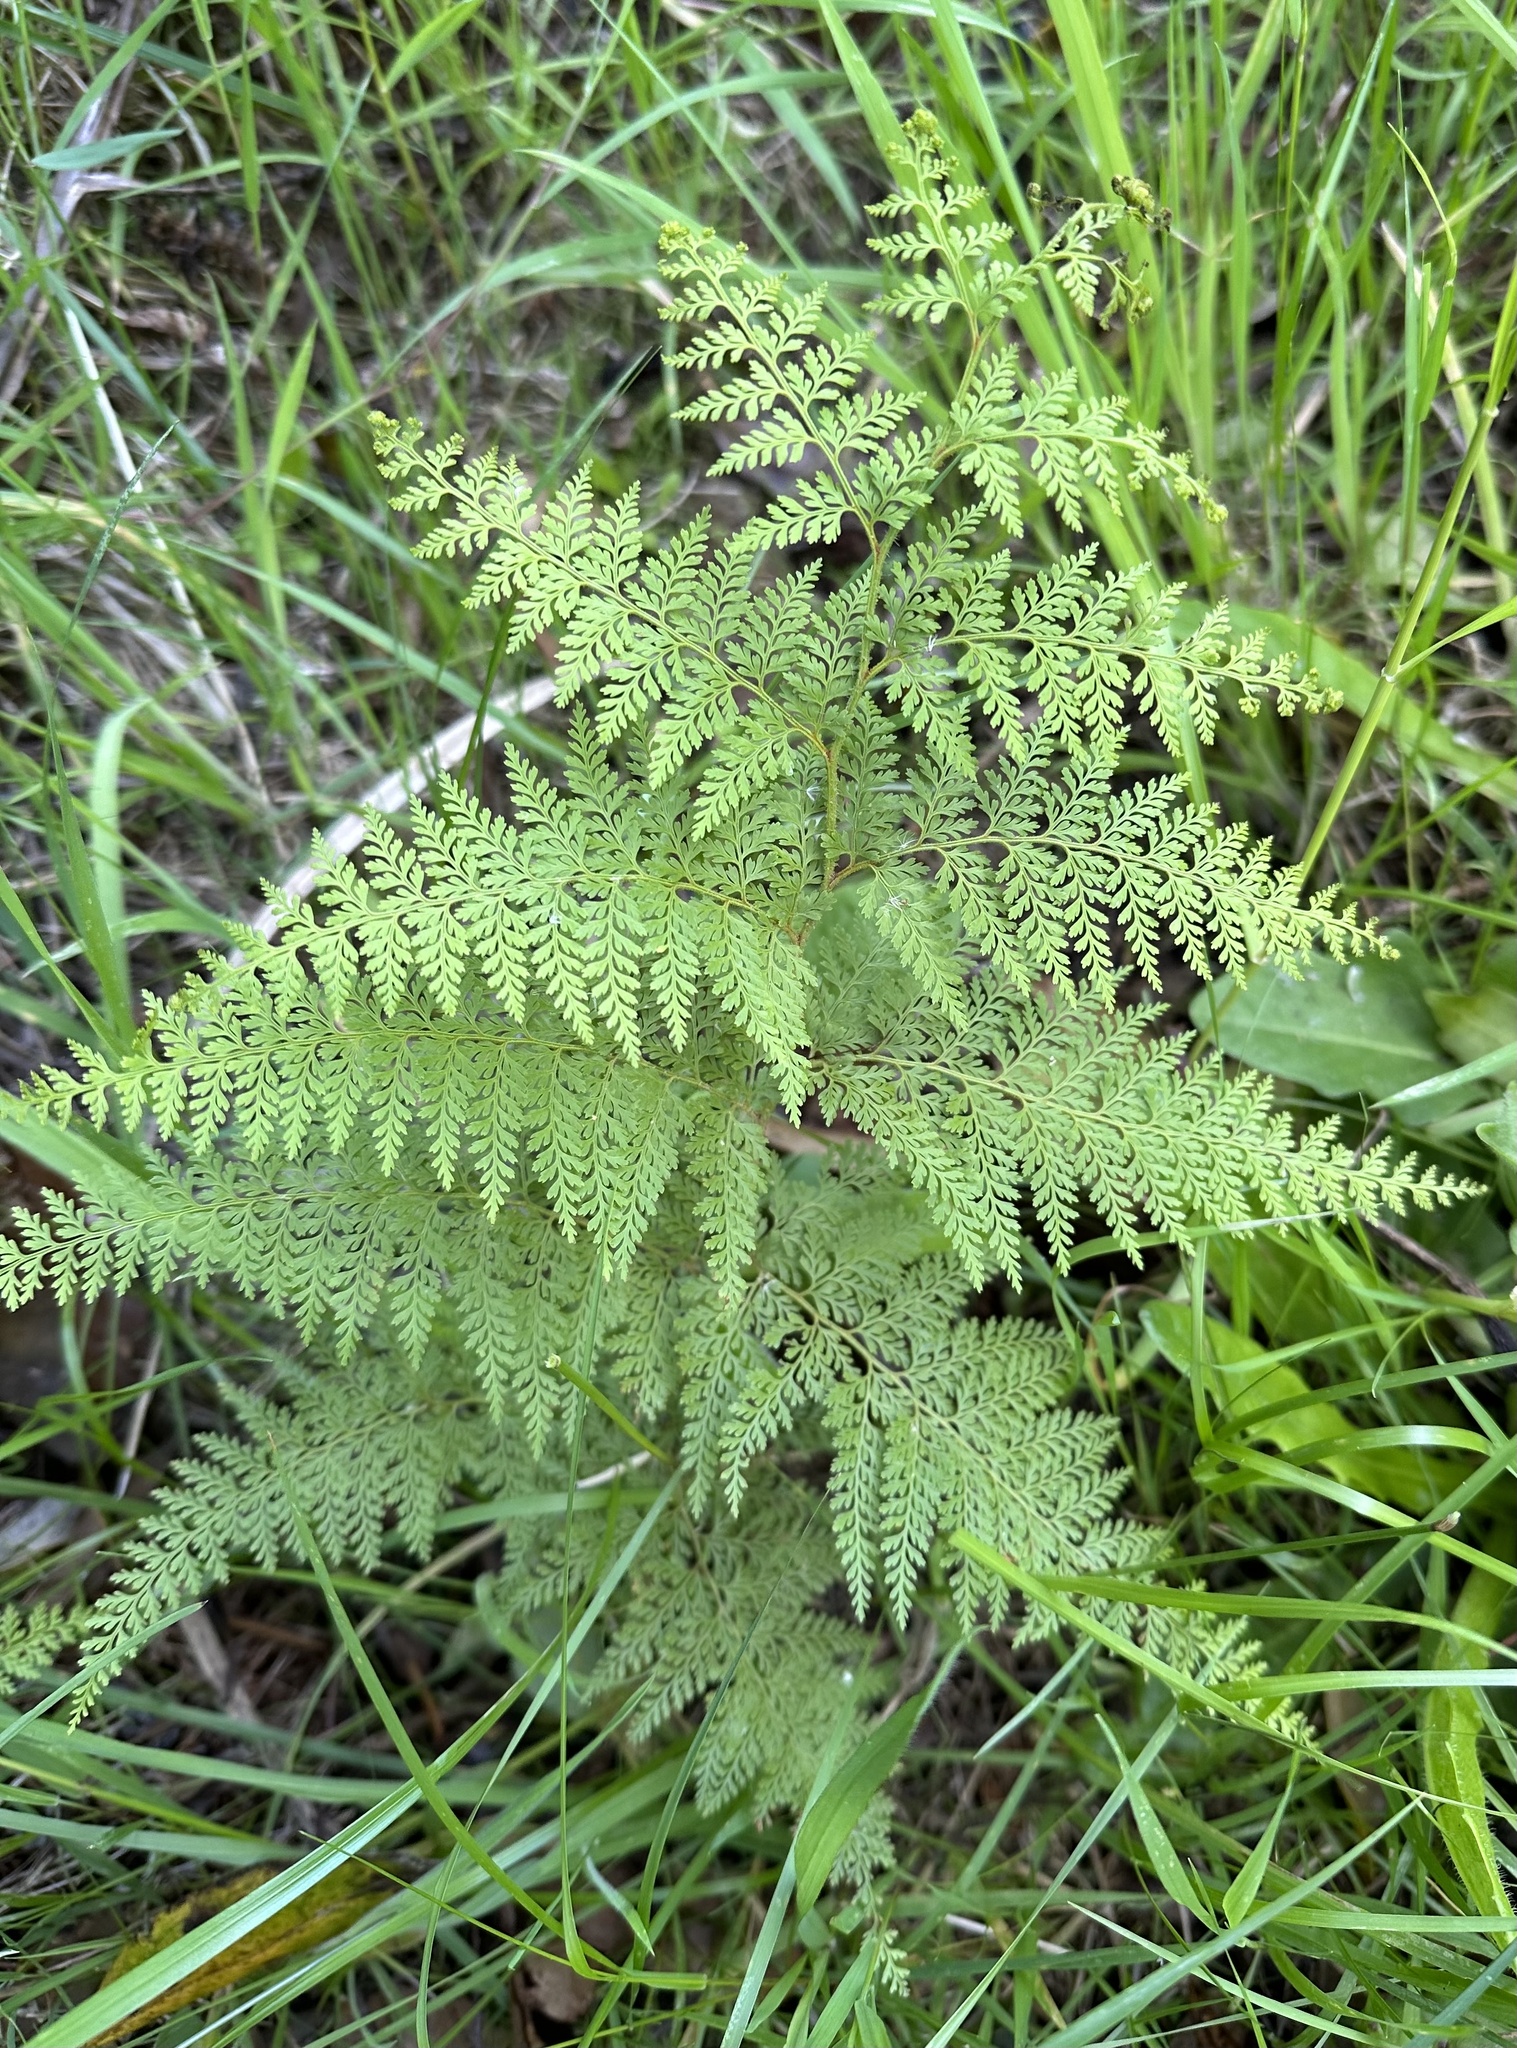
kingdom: Plantae
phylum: Tracheophyta
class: Polypodiopsida
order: Polypodiales
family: Dennstaedtiaceae
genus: Paesia
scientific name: Paesia scaberula
